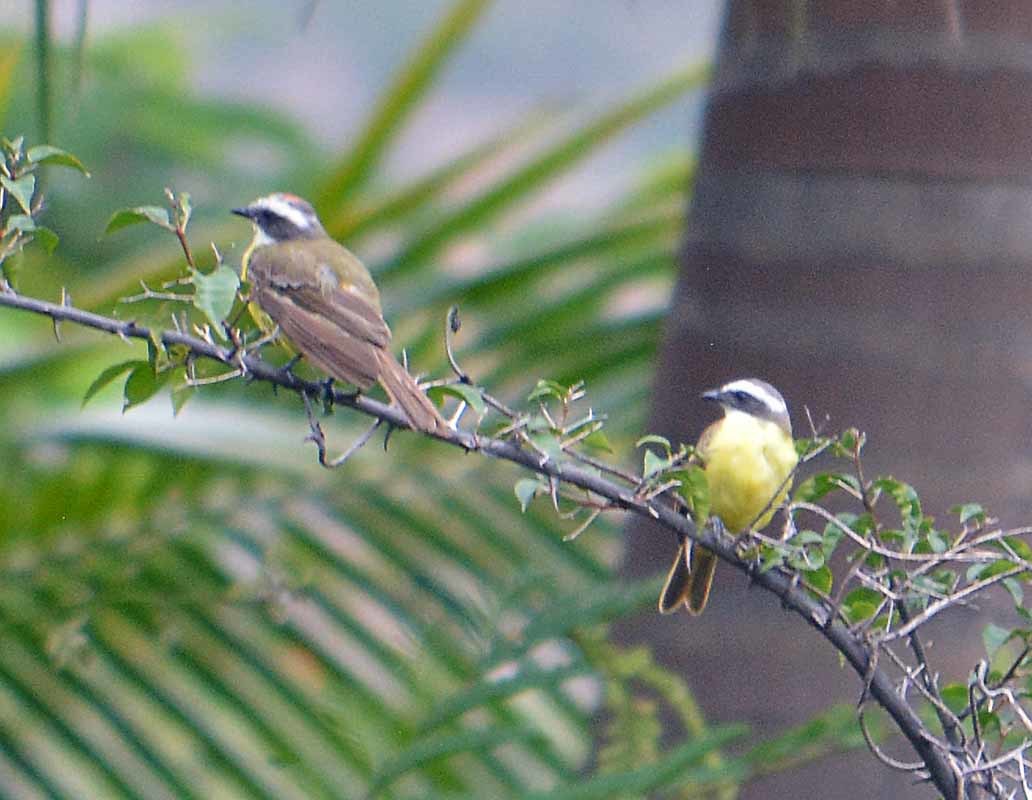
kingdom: Animalia
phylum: Chordata
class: Aves
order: Passeriformes
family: Tyrannidae
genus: Myiozetetes
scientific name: Myiozetetes similis
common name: Social flycatcher
